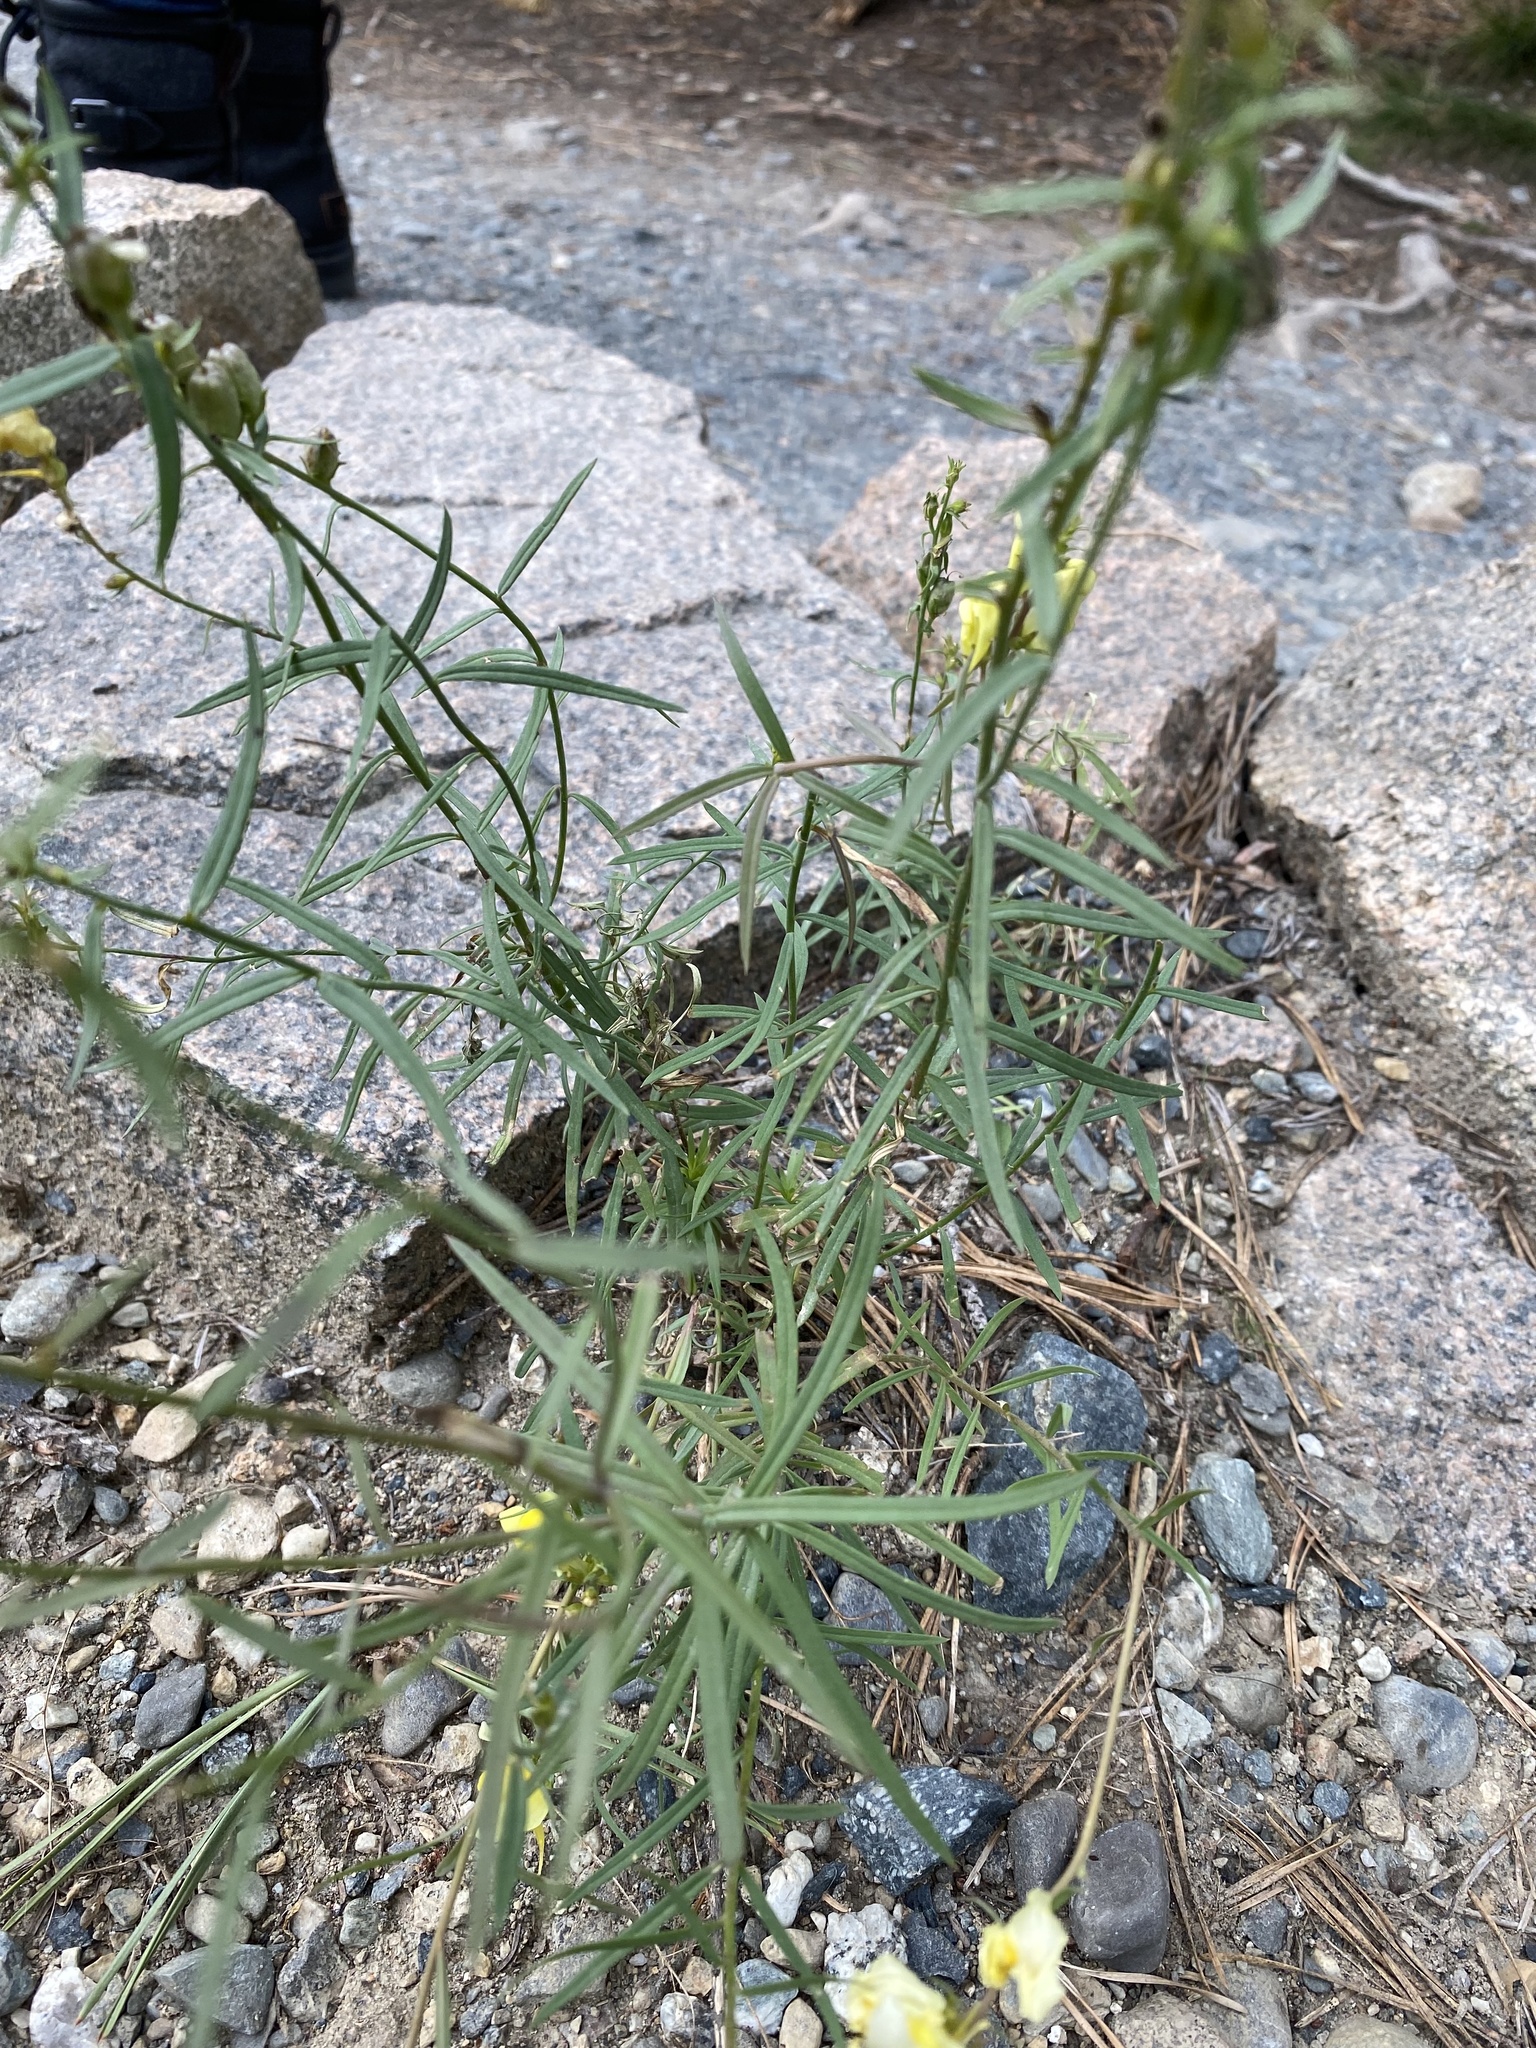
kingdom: Plantae
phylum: Tracheophyta
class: Magnoliopsida
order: Lamiales
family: Plantaginaceae
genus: Linaria
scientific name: Linaria vulgaris
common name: Butter and eggs
